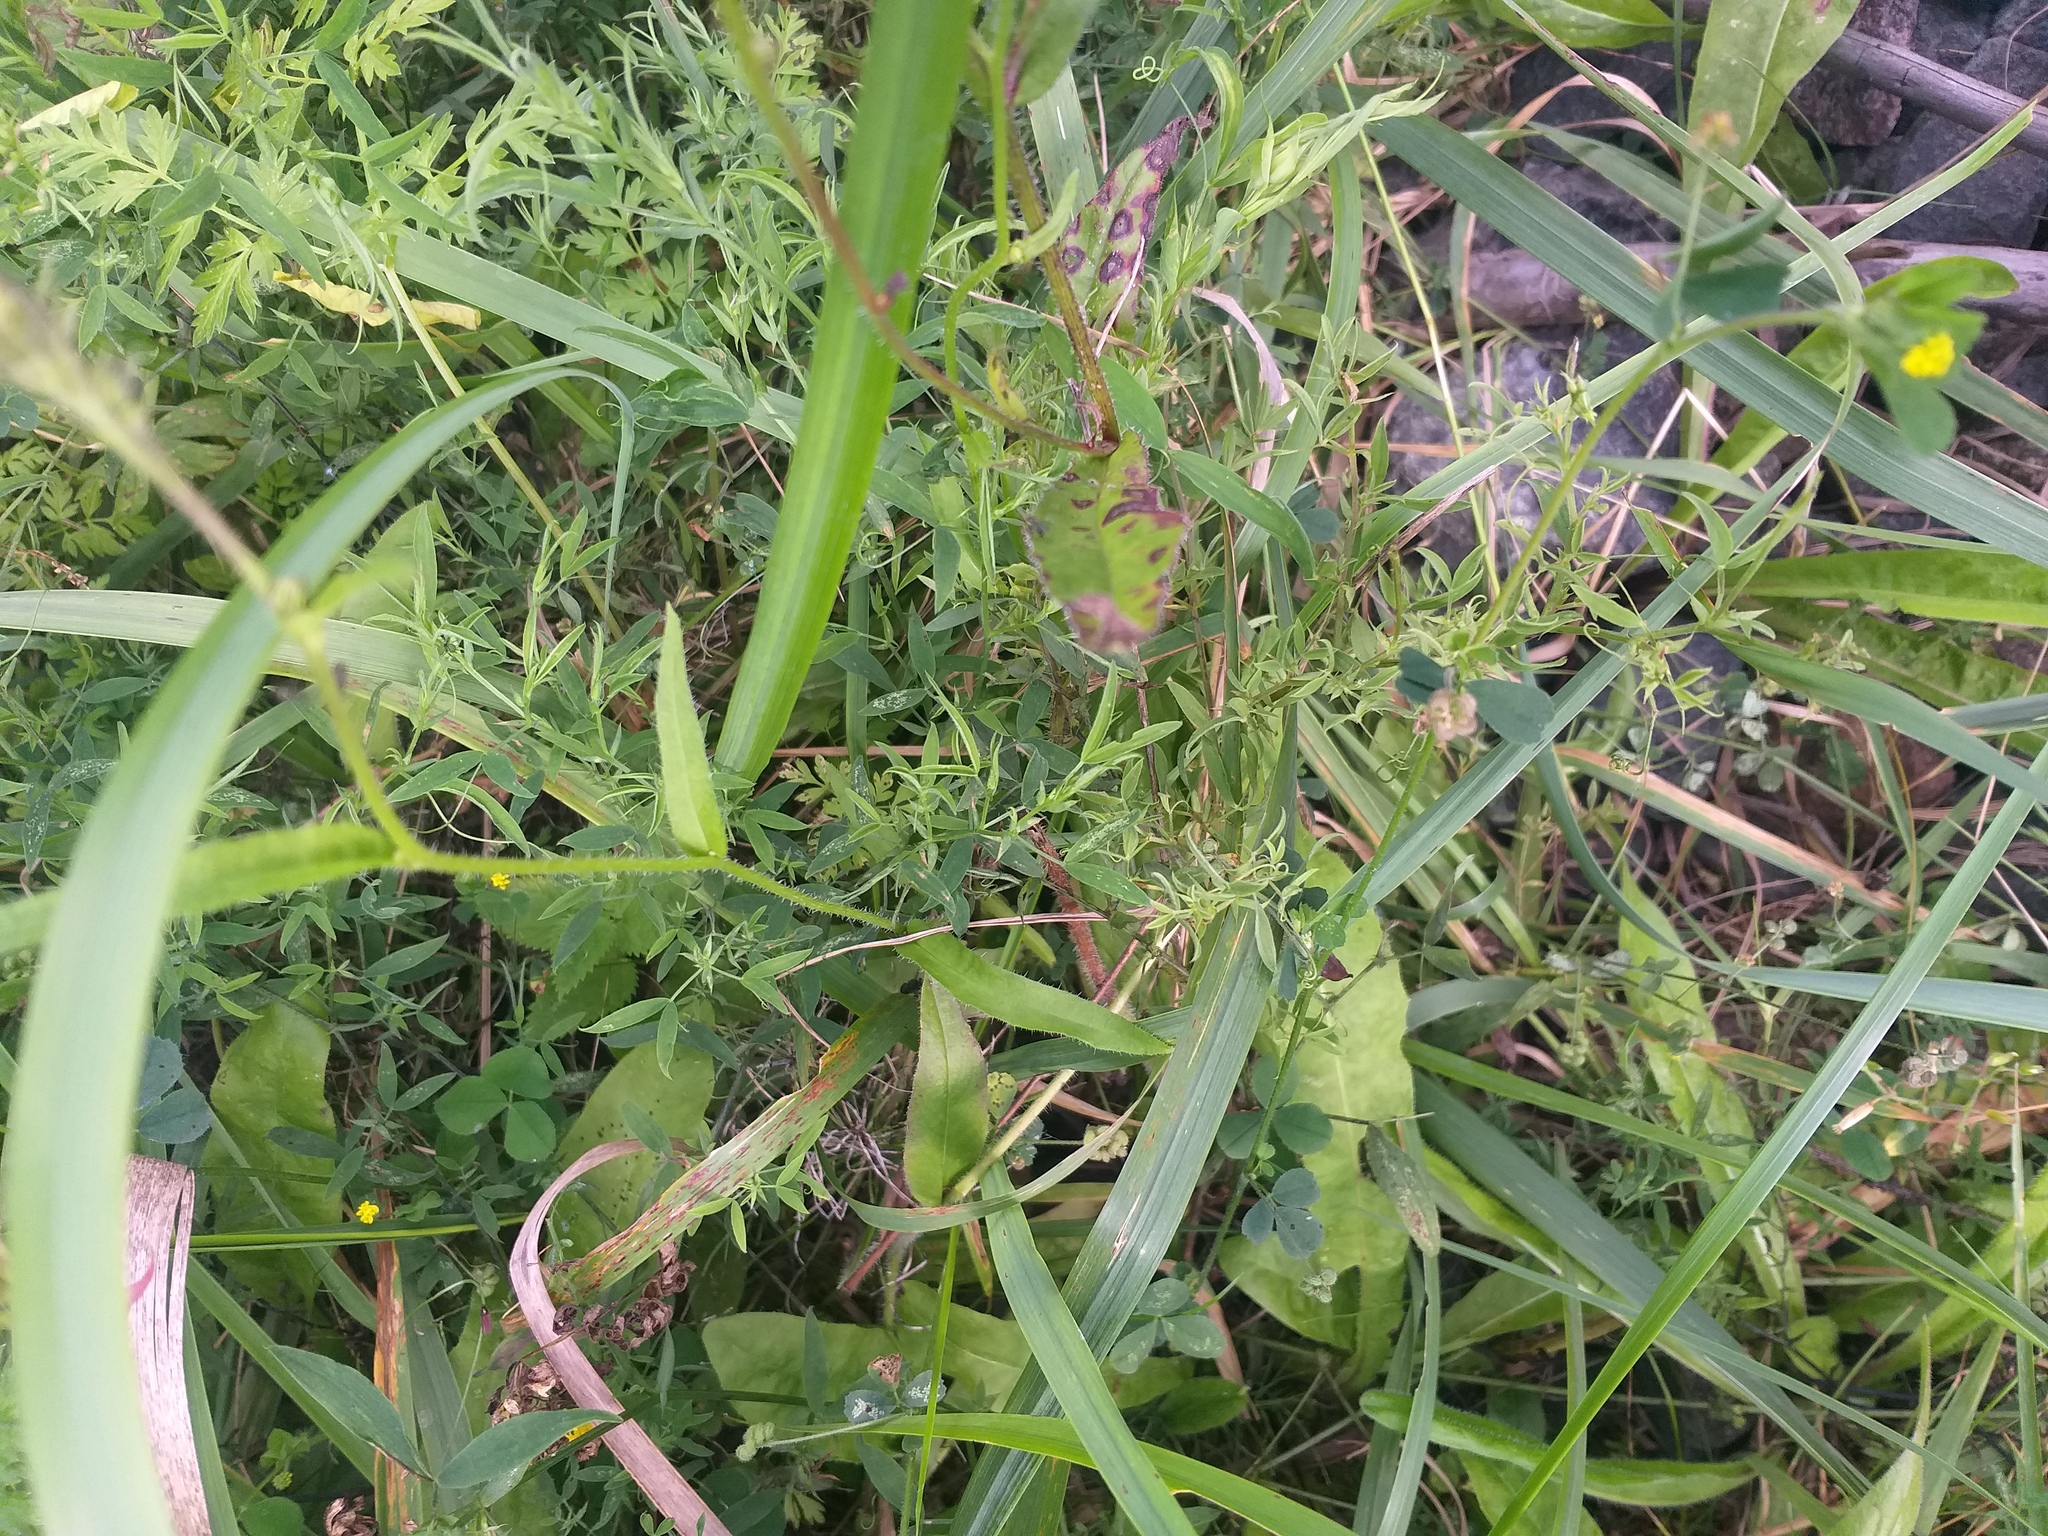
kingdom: Plantae
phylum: Tracheophyta
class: Magnoliopsida
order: Fabales
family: Fabaceae
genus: Lathyrus
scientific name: Lathyrus pratensis
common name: Meadow vetchling
